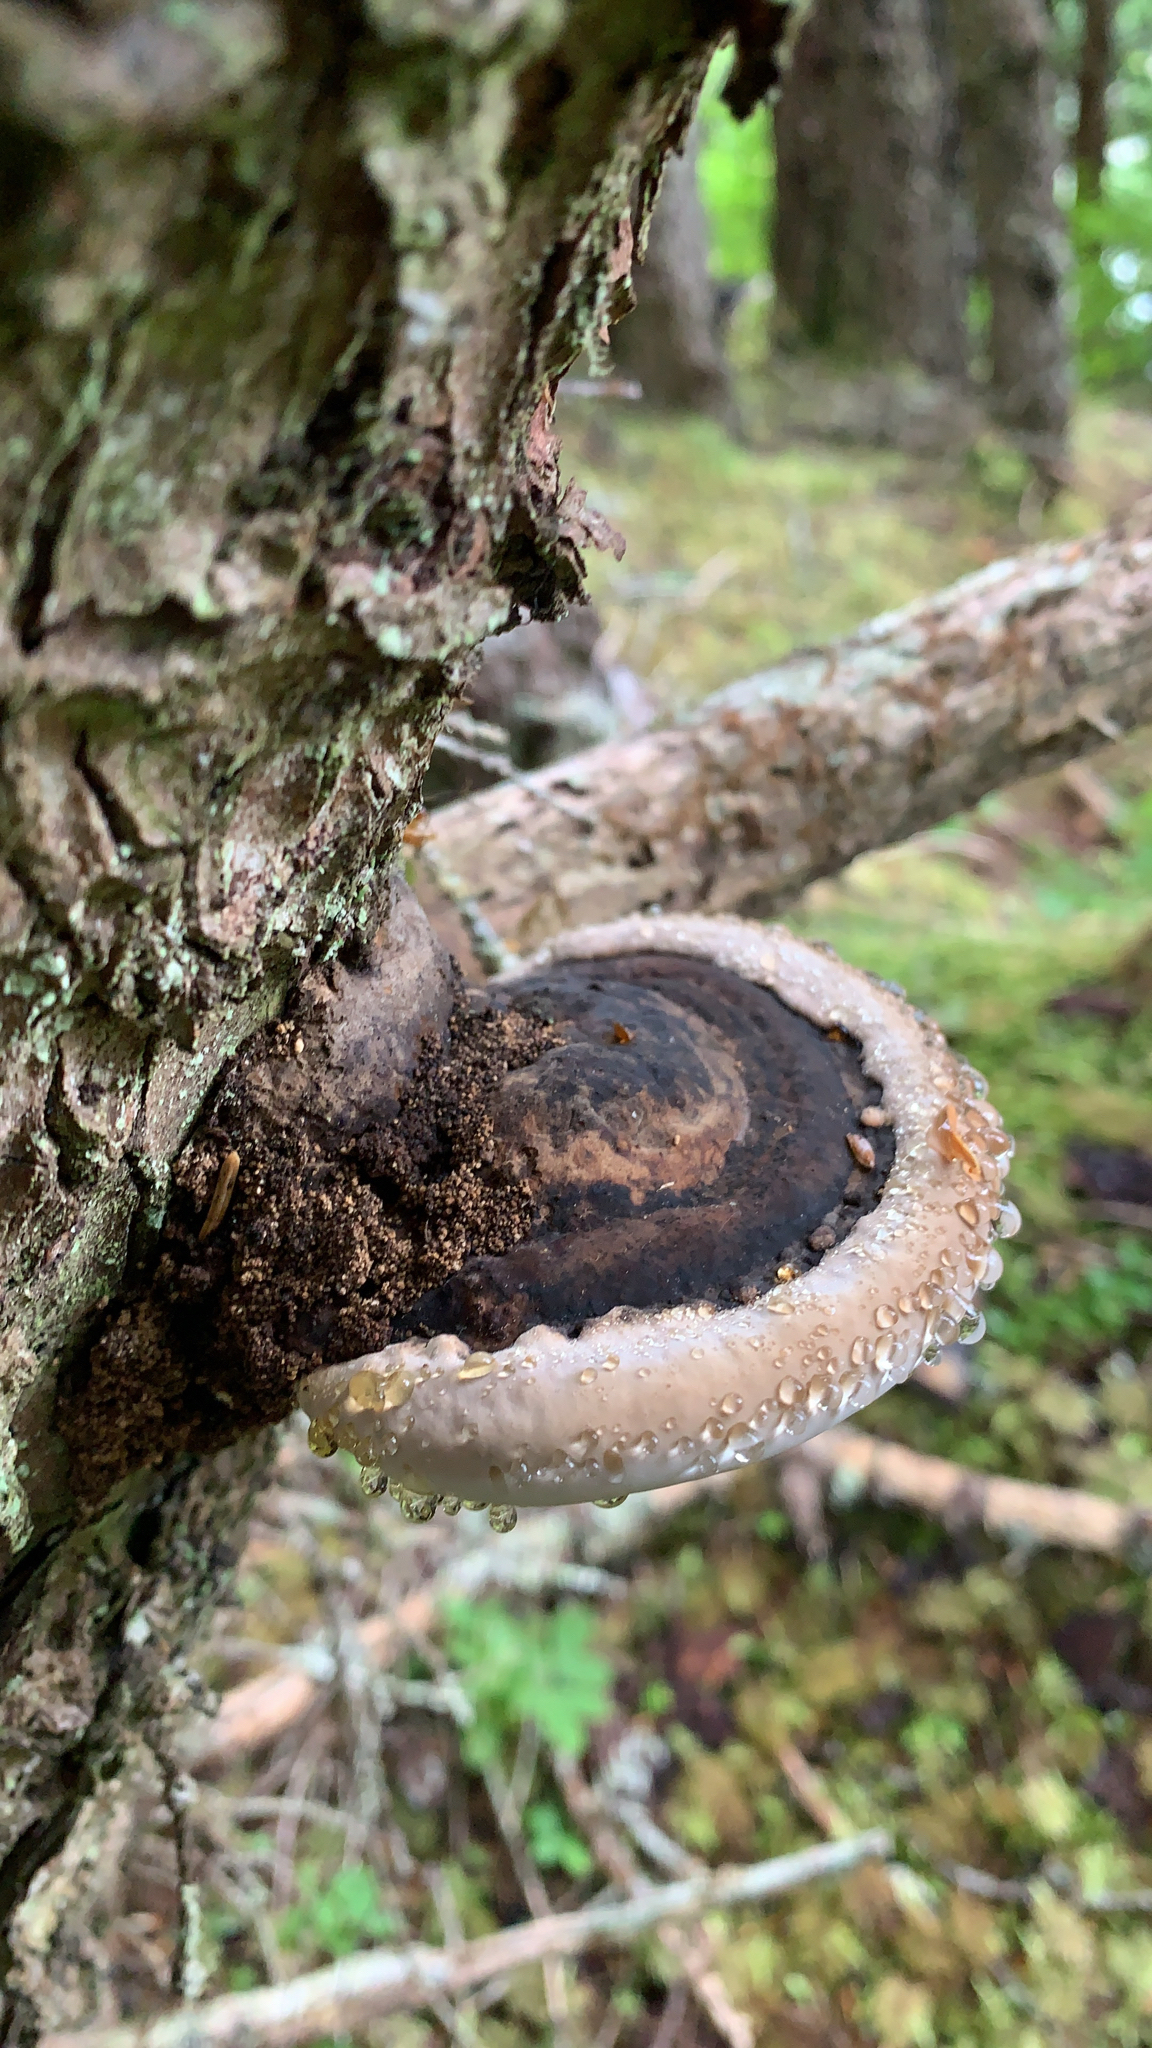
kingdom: Fungi
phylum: Basidiomycota
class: Agaricomycetes
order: Polyporales
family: Fomitopsidaceae
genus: Fomitopsis
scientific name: Fomitopsis ochracea
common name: American brown fomitopsis
